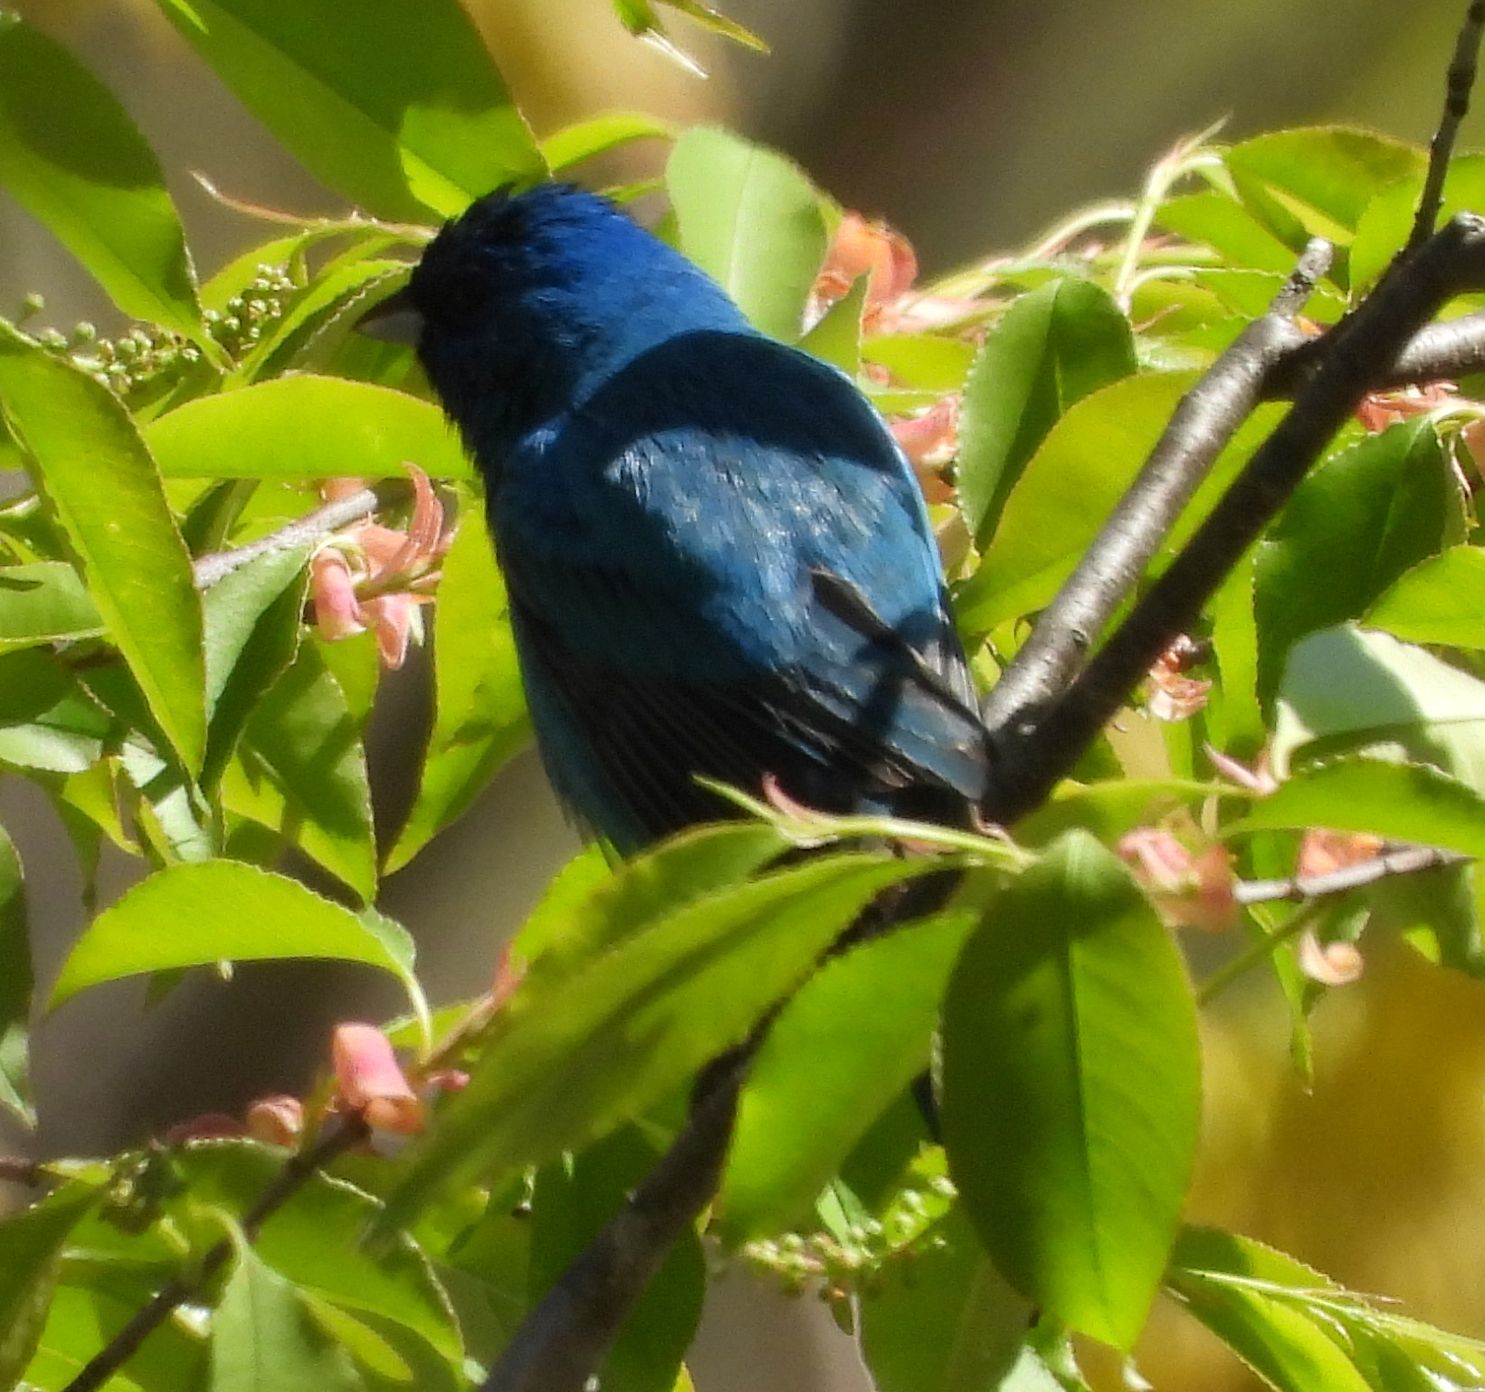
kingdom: Animalia
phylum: Chordata
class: Aves
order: Passeriformes
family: Cardinalidae
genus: Passerina
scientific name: Passerina cyanea
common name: Indigo bunting
